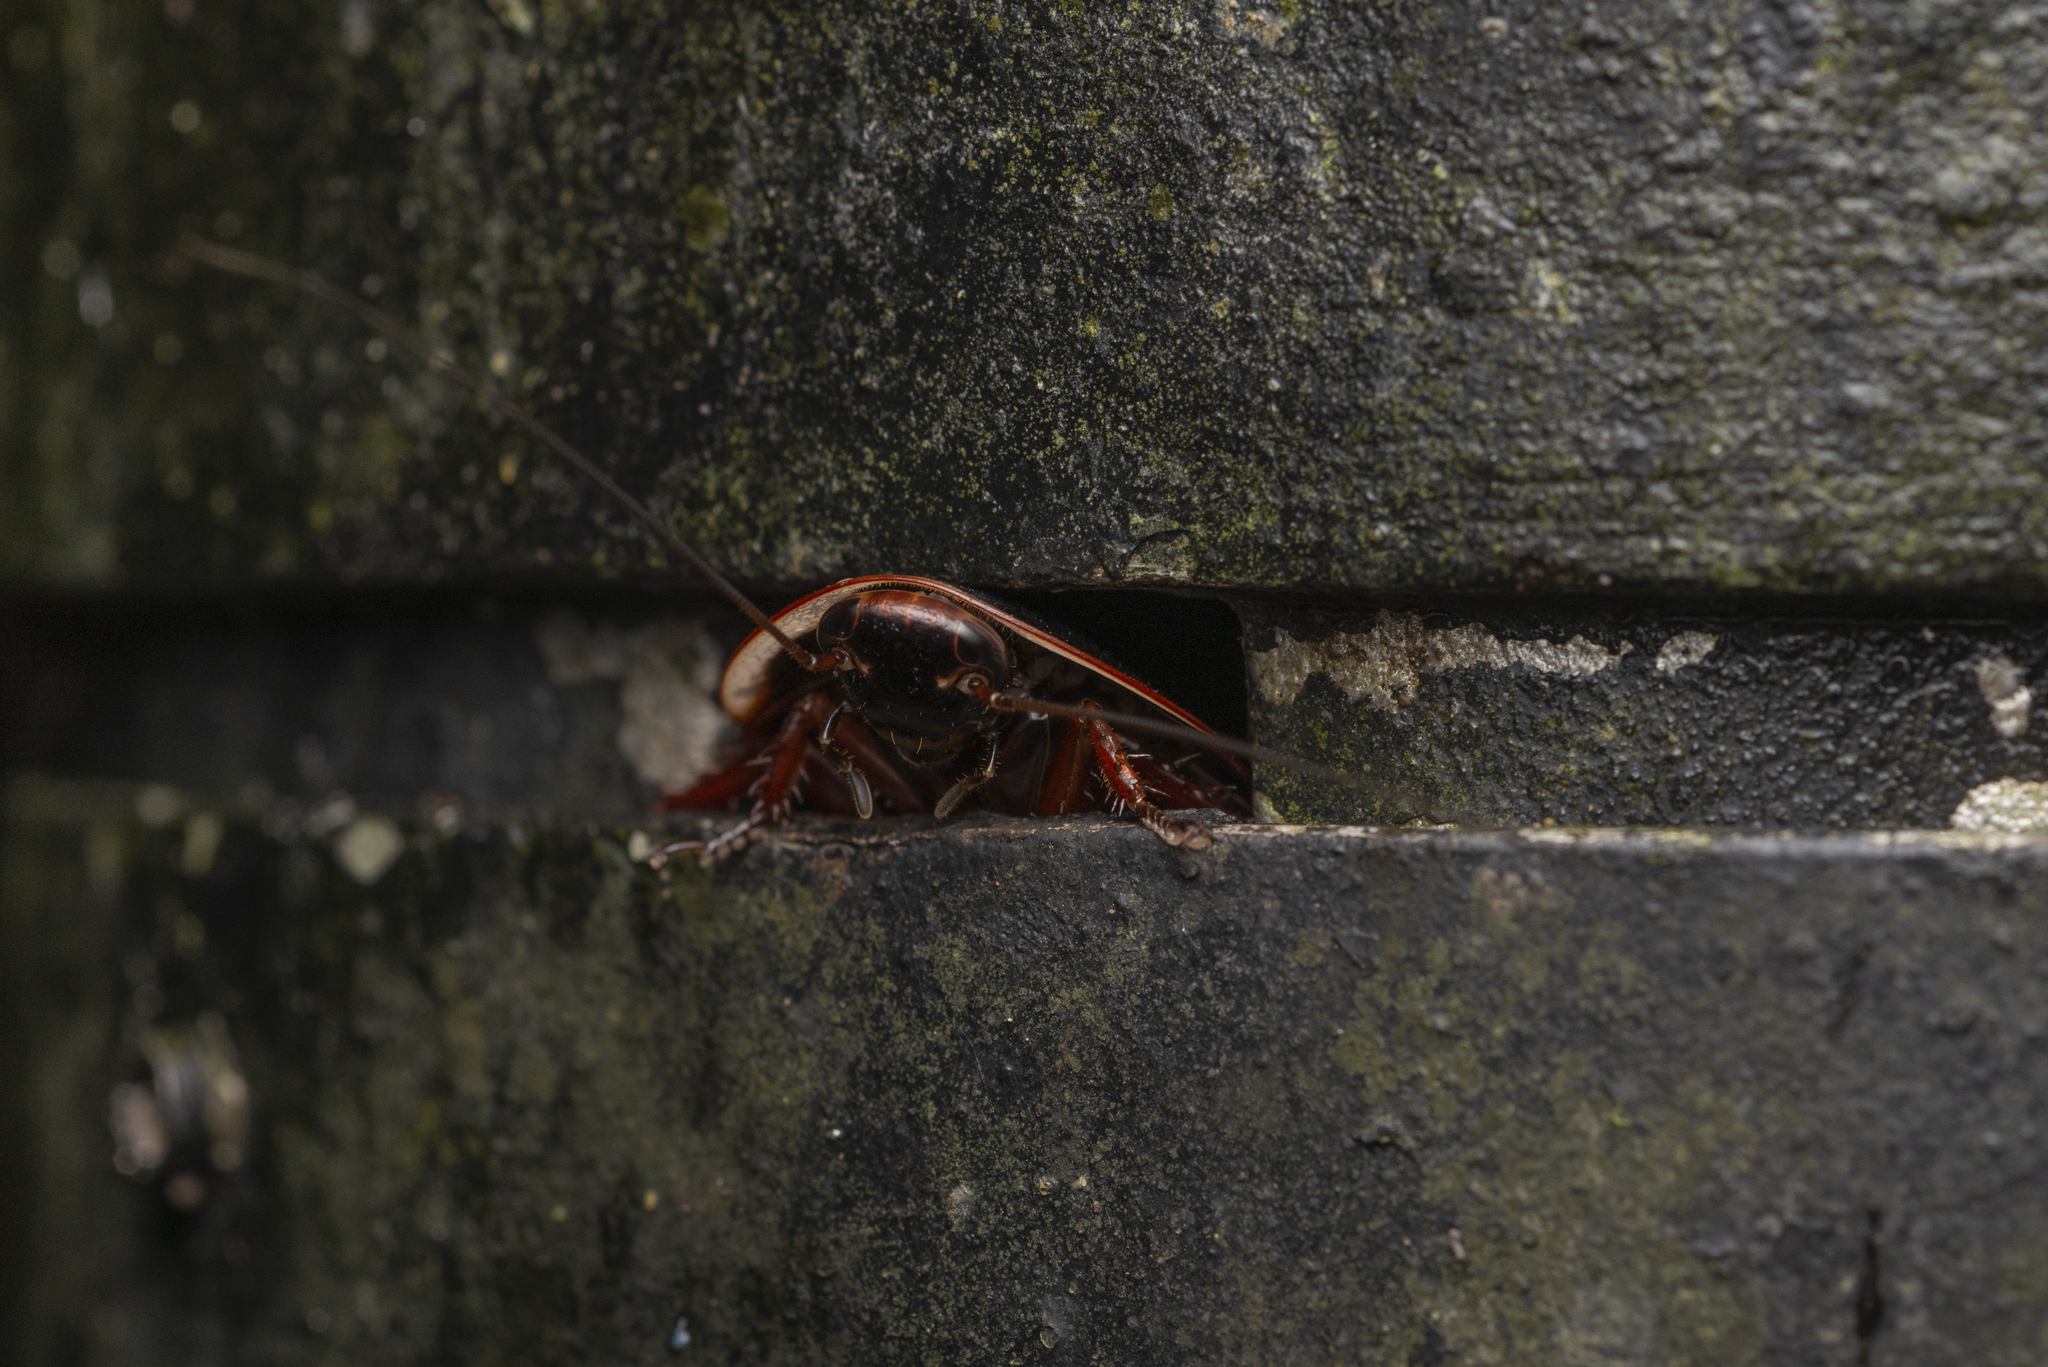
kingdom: Animalia
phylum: Arthropoda
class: Insecta
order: Blattodea
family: Blaberidae
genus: Opisthoplatia
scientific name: Opisthoplatia orientalis
